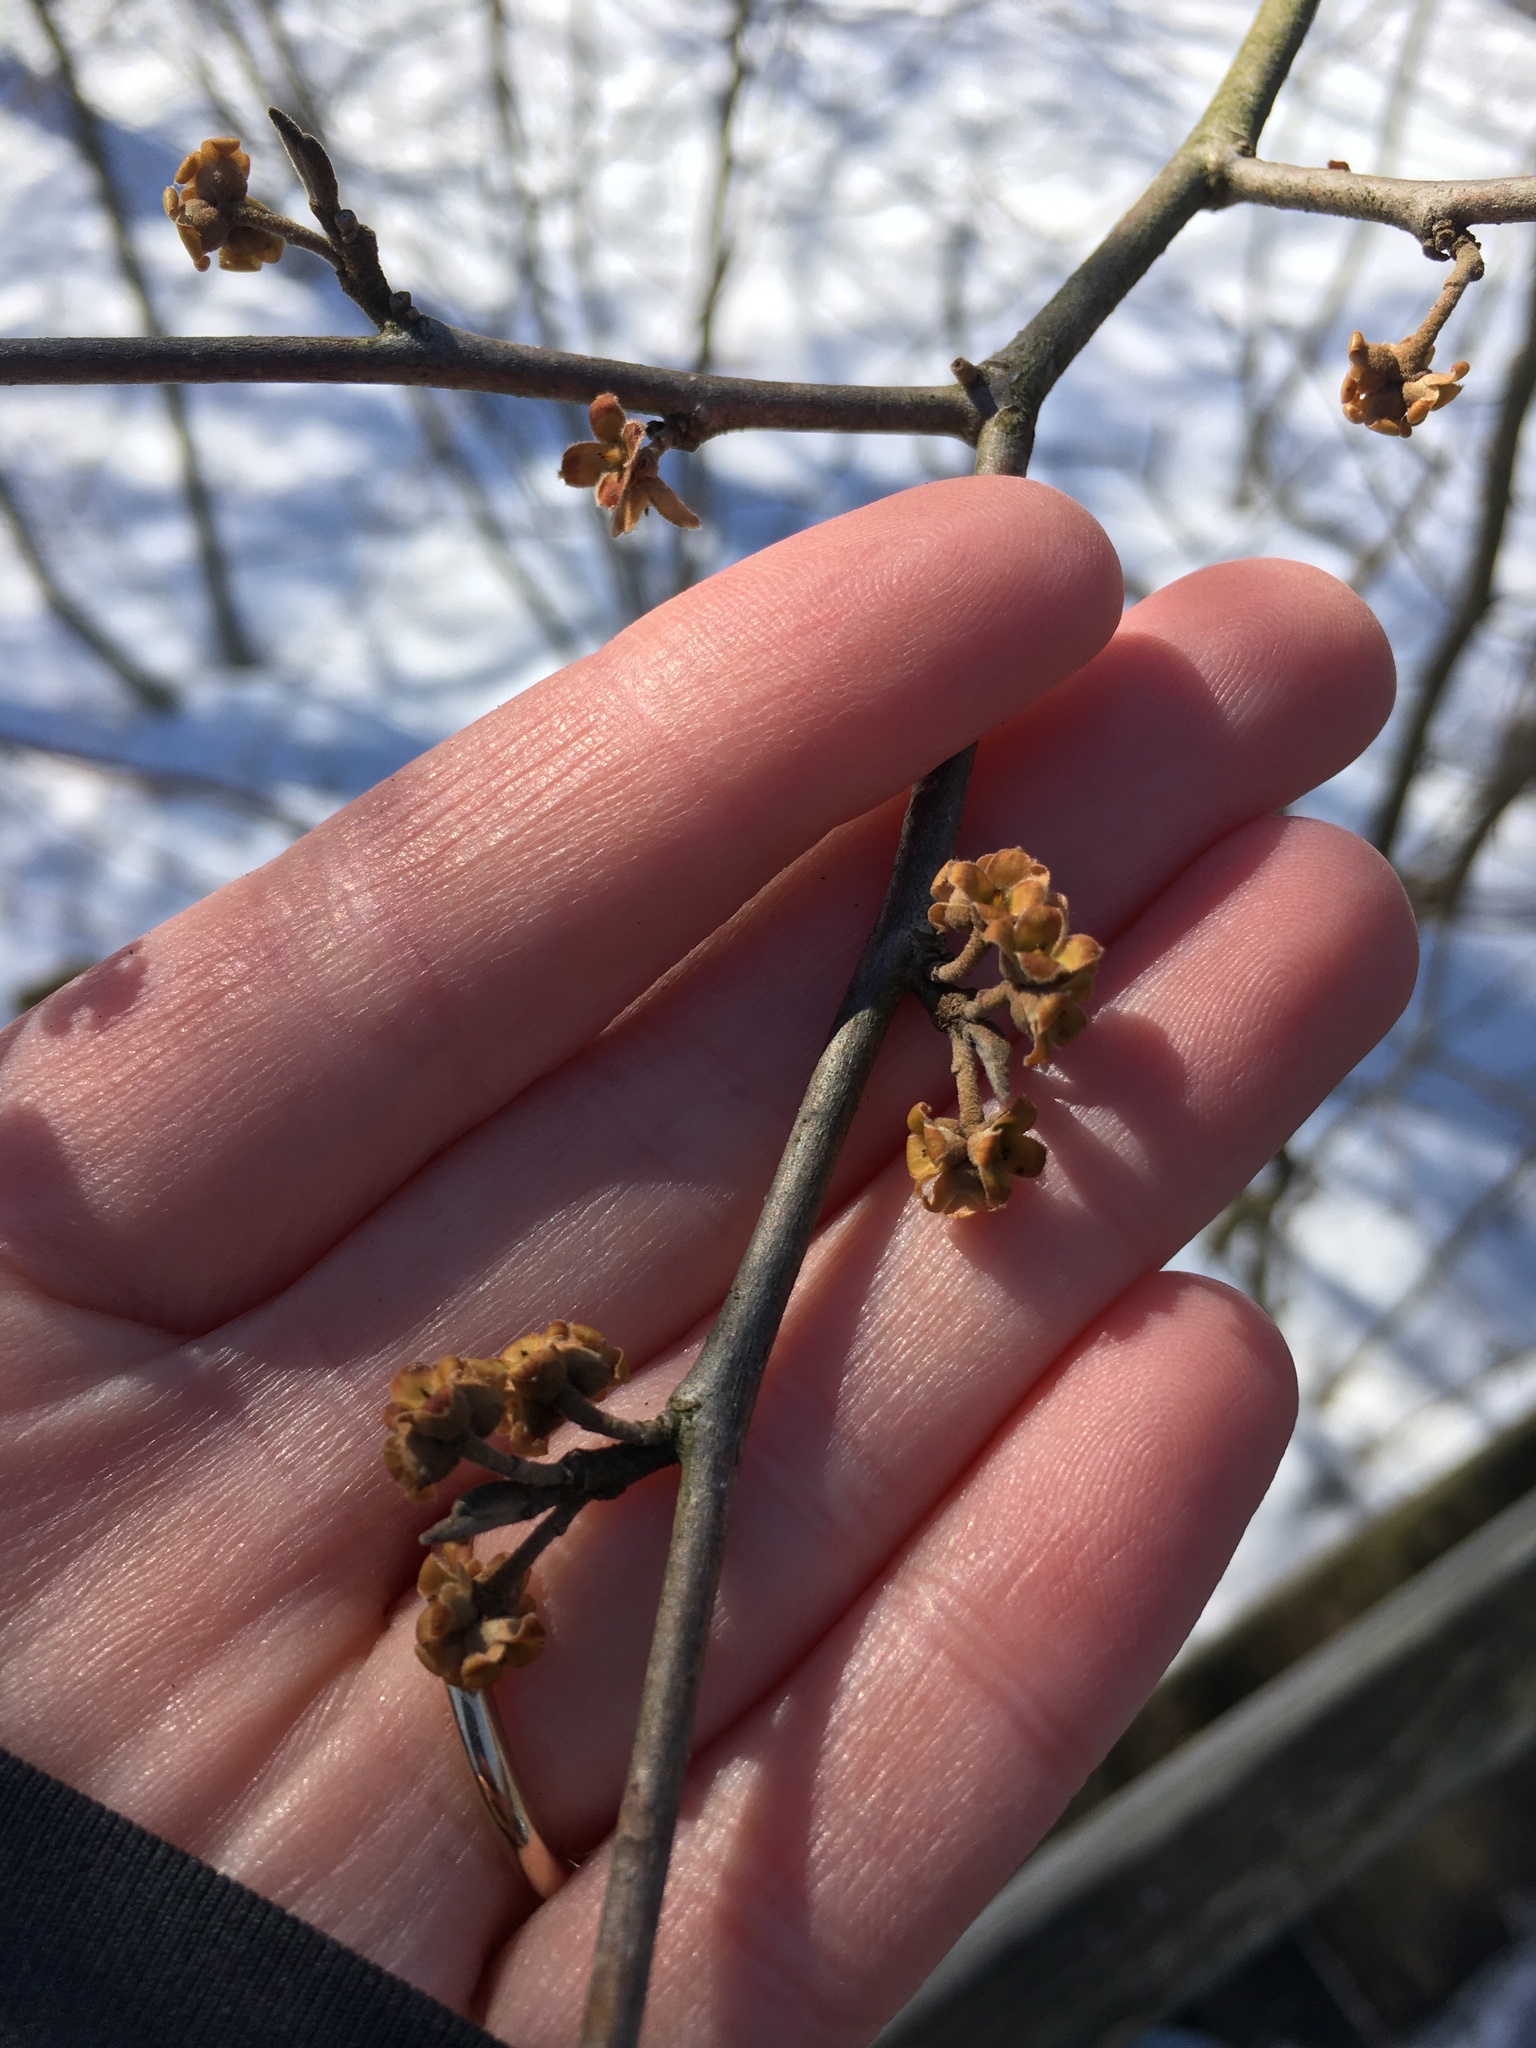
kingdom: Plantae
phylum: Tracheophyta
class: Magnoliopsida
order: Saxifragales
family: Hamamelidaceae
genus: Hamamelis
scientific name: Hamamelis virginiana
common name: Witch-hazel
